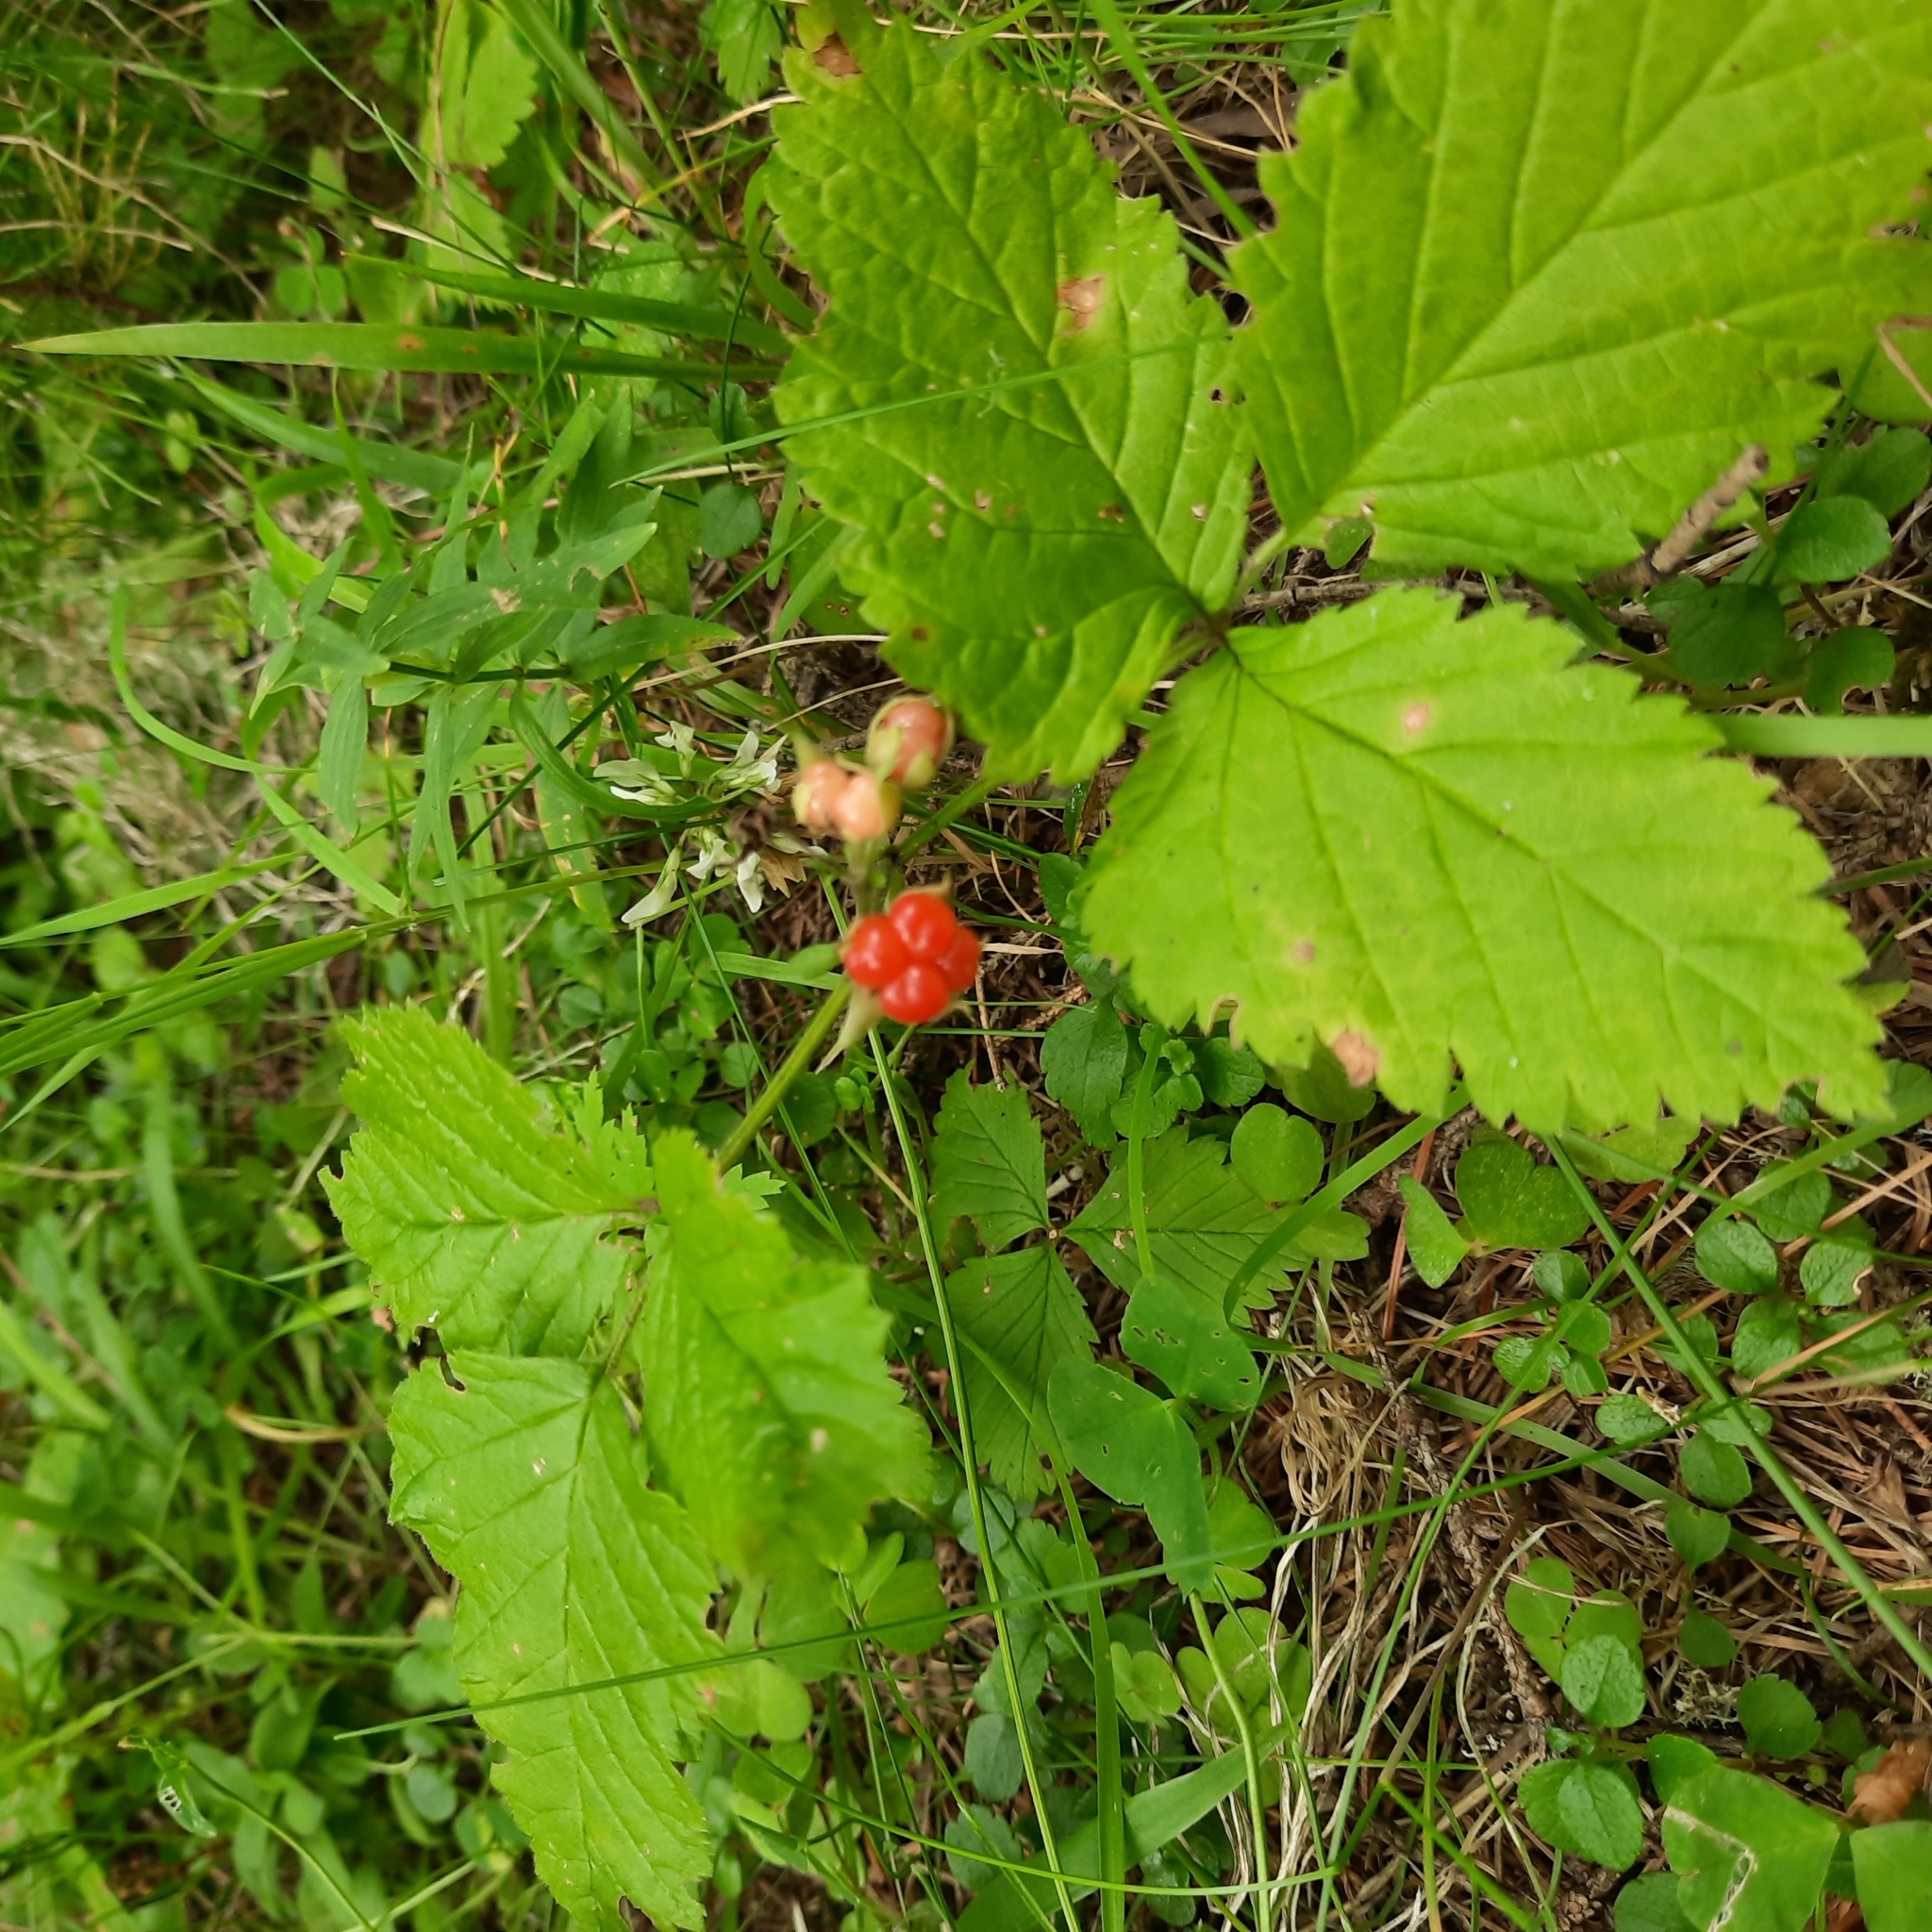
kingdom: Plantae
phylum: Tracheophyta
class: Magnoliopsida
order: Rosales
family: Rosaceae
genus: Rubus
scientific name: Rubus saxatilis
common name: Stone bramble
